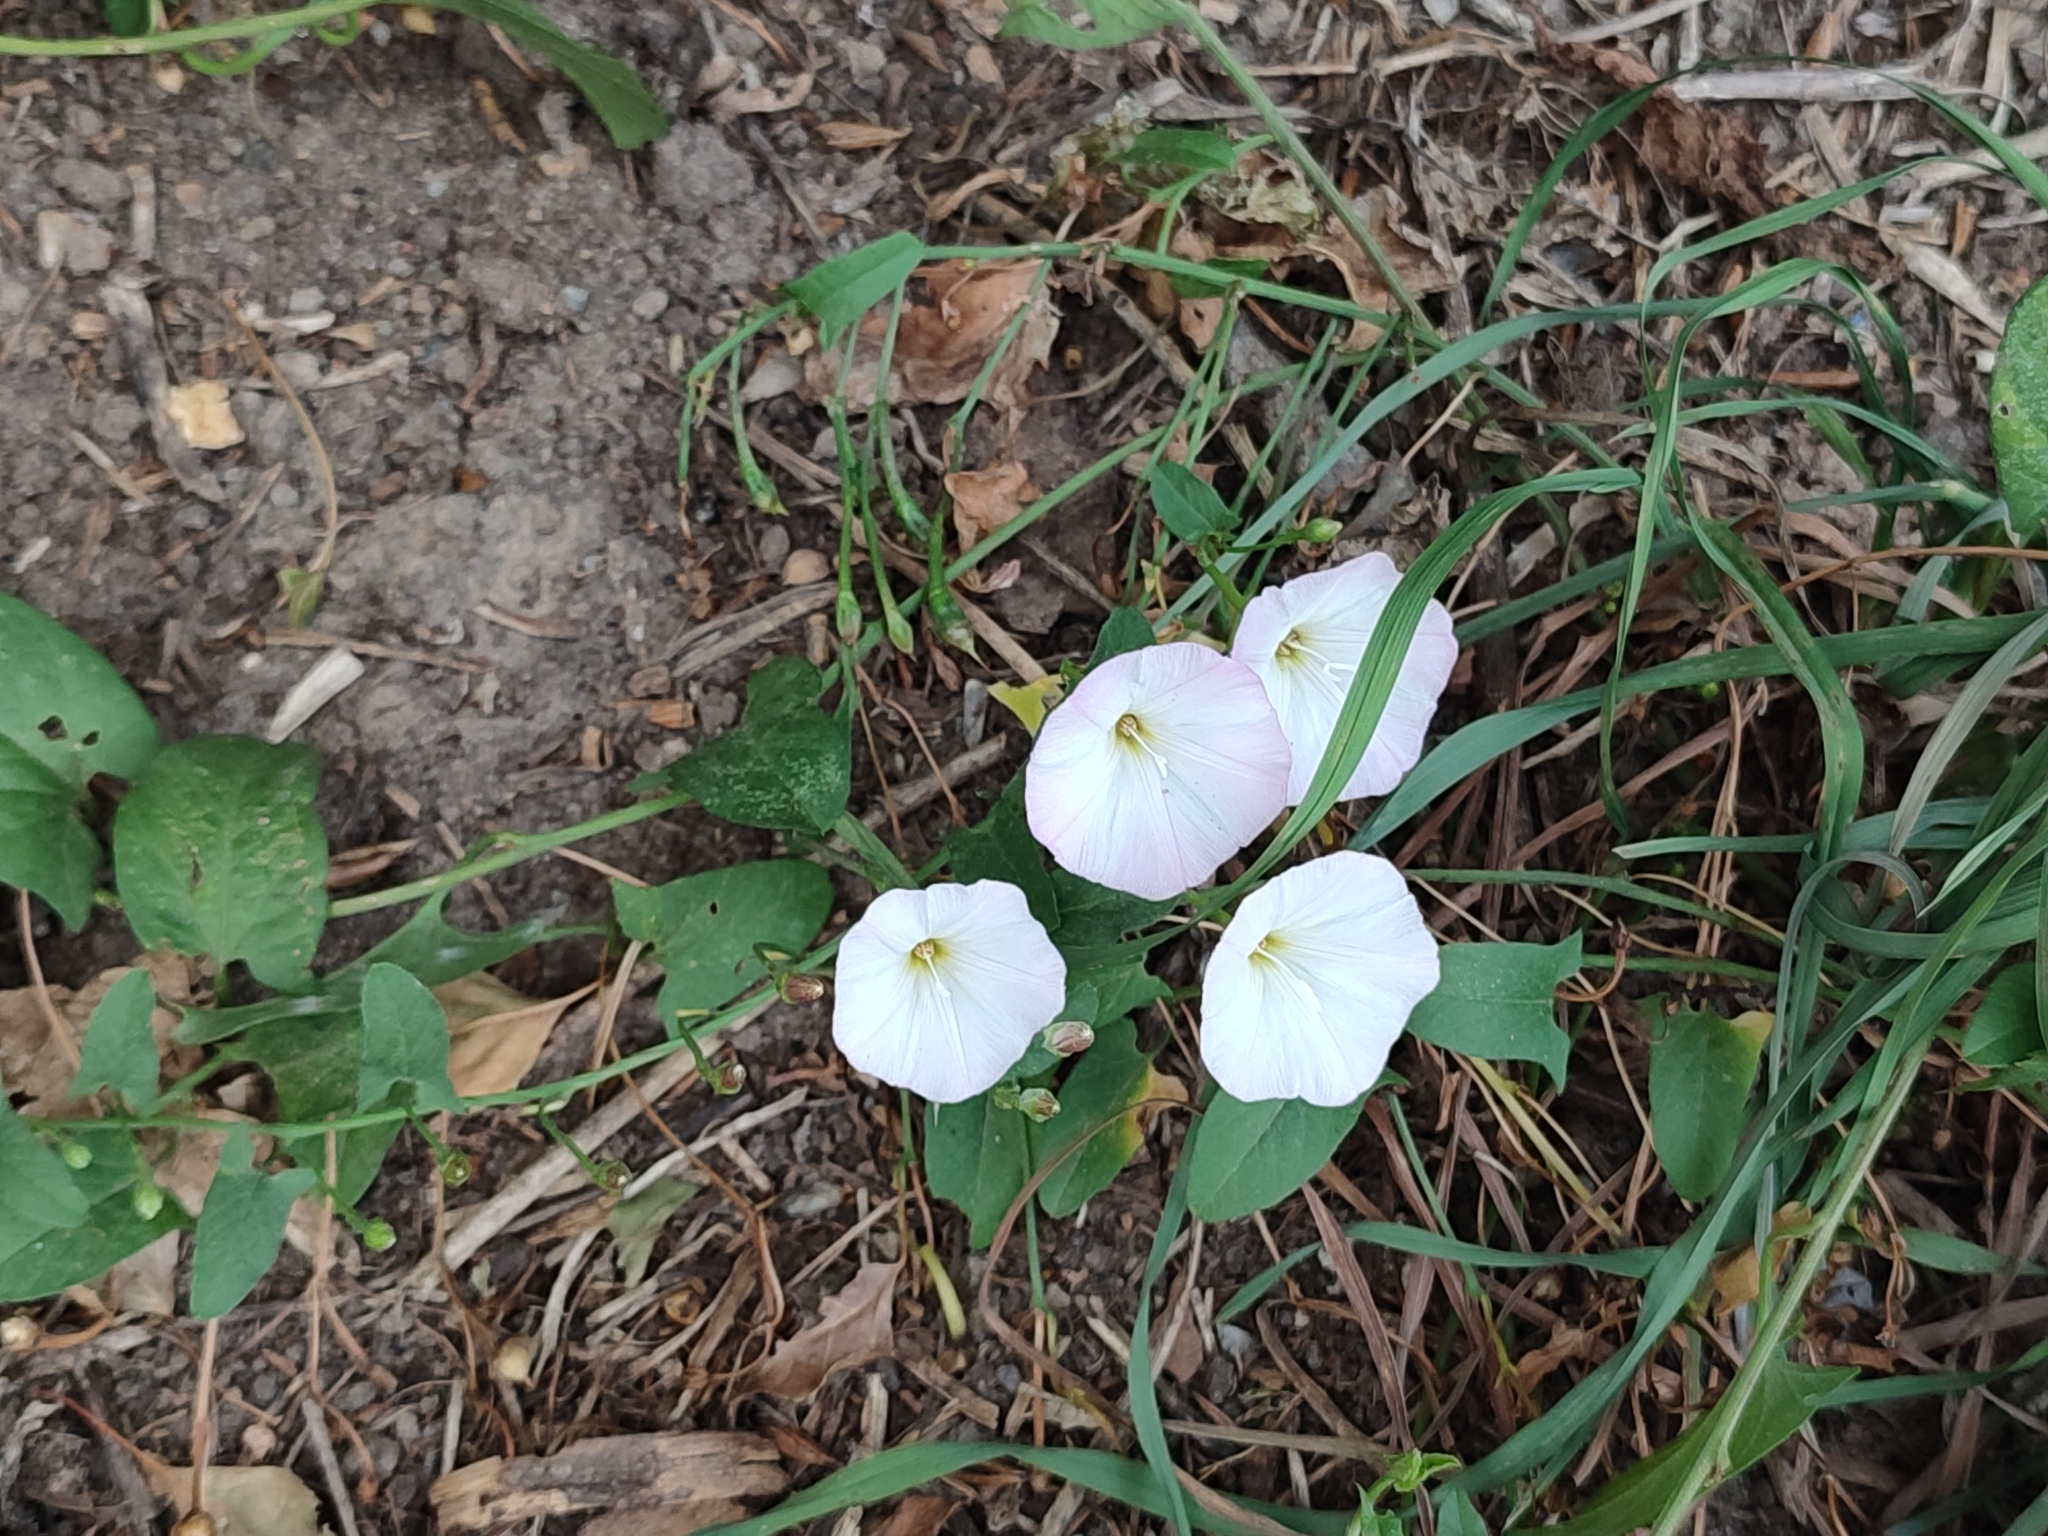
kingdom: Plantae
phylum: Tracheophyta
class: Magnoliopsida
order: Solanales
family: Convolvulaceae
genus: Convolvulus
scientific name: Convolvulus arvensis
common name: Field bindweed
